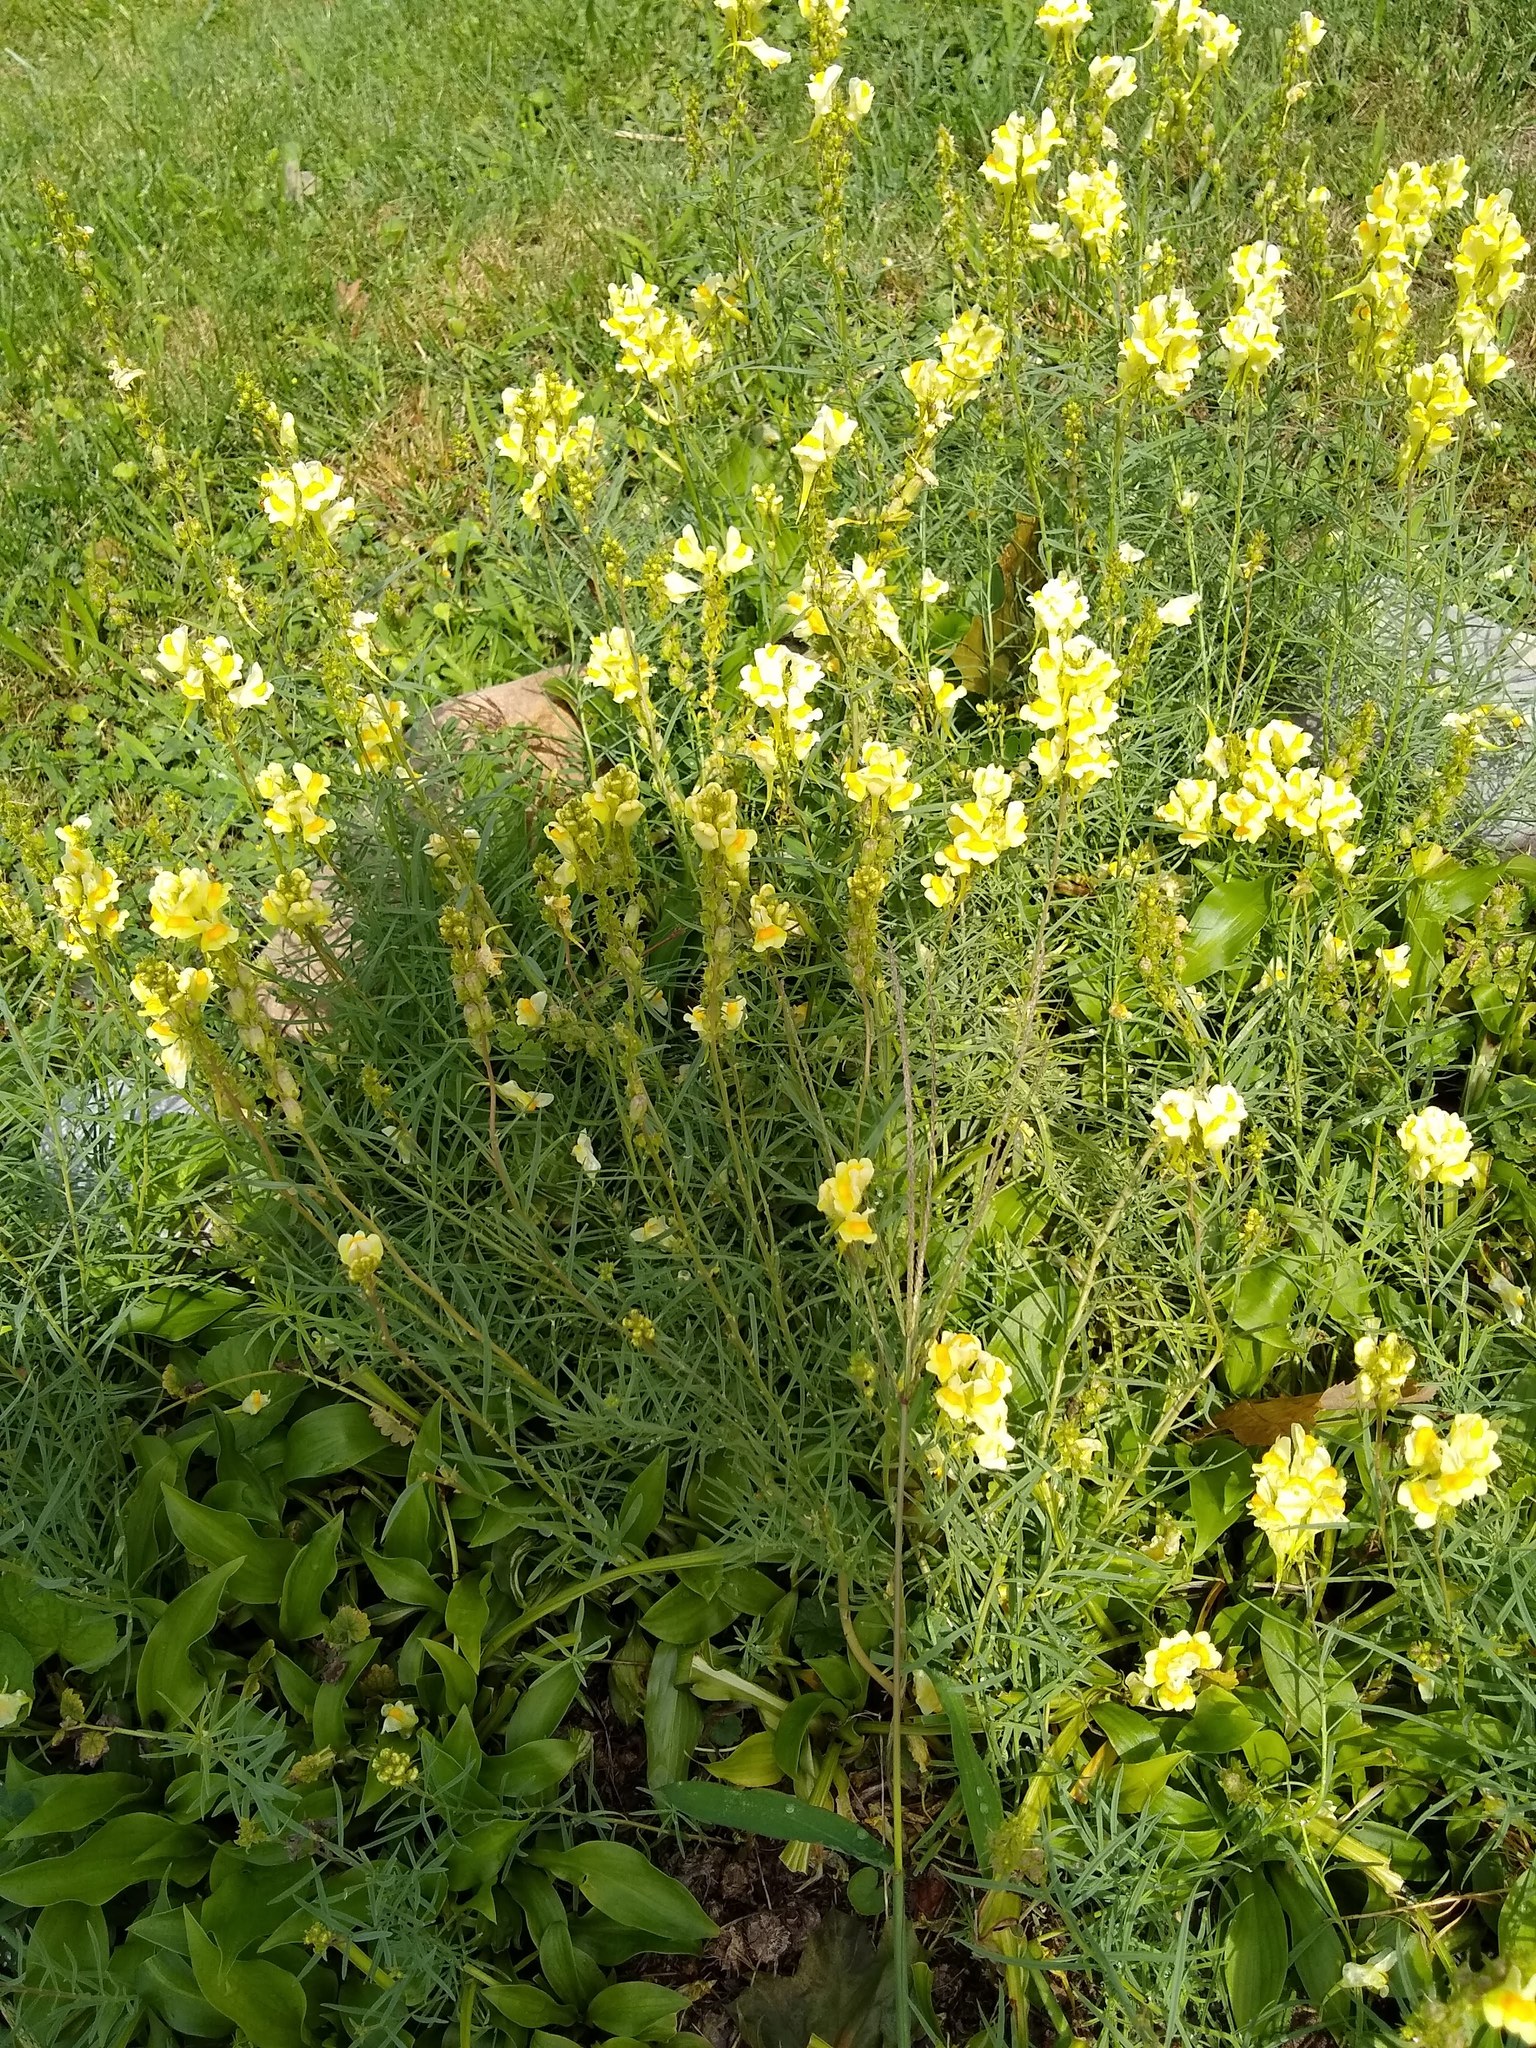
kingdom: Plantae
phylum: Tracheophyta
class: Magnoliopsida
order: Lamiales
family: Plantaginaceae
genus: Linaria
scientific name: Linaria vulgaris
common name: Butter and eggs
